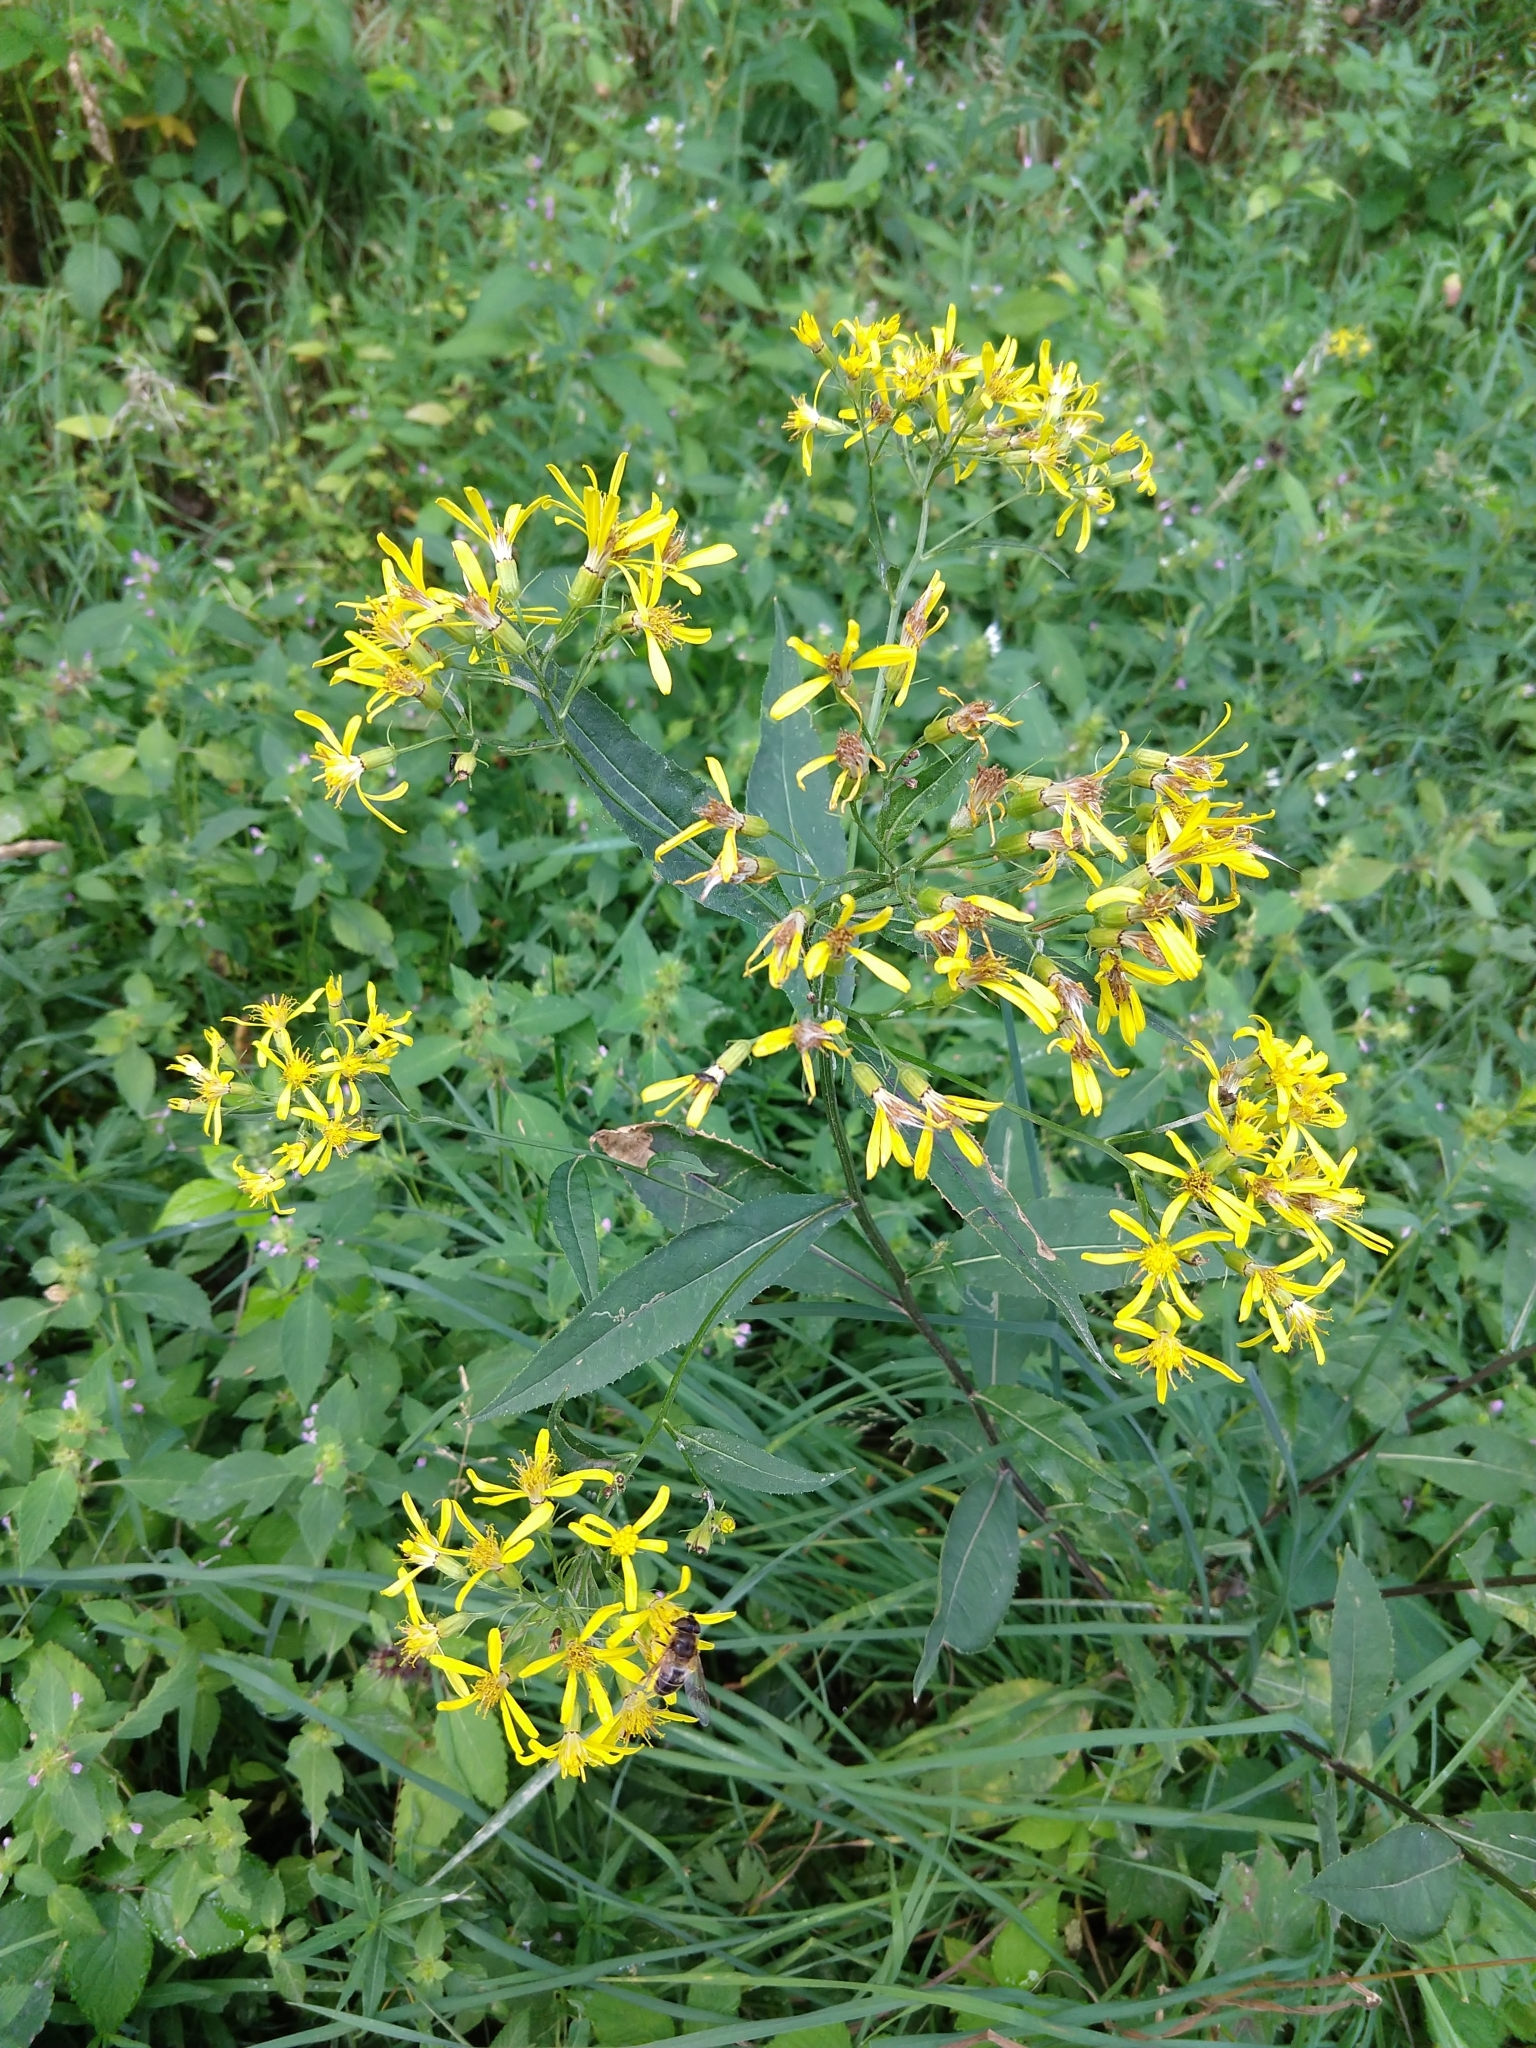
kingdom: Plantae
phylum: Tracheophyta
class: Magnoliopsida
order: Asterales
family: Asteraceae
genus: Senecio
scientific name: Senecio ovatus
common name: Wood ragwort
